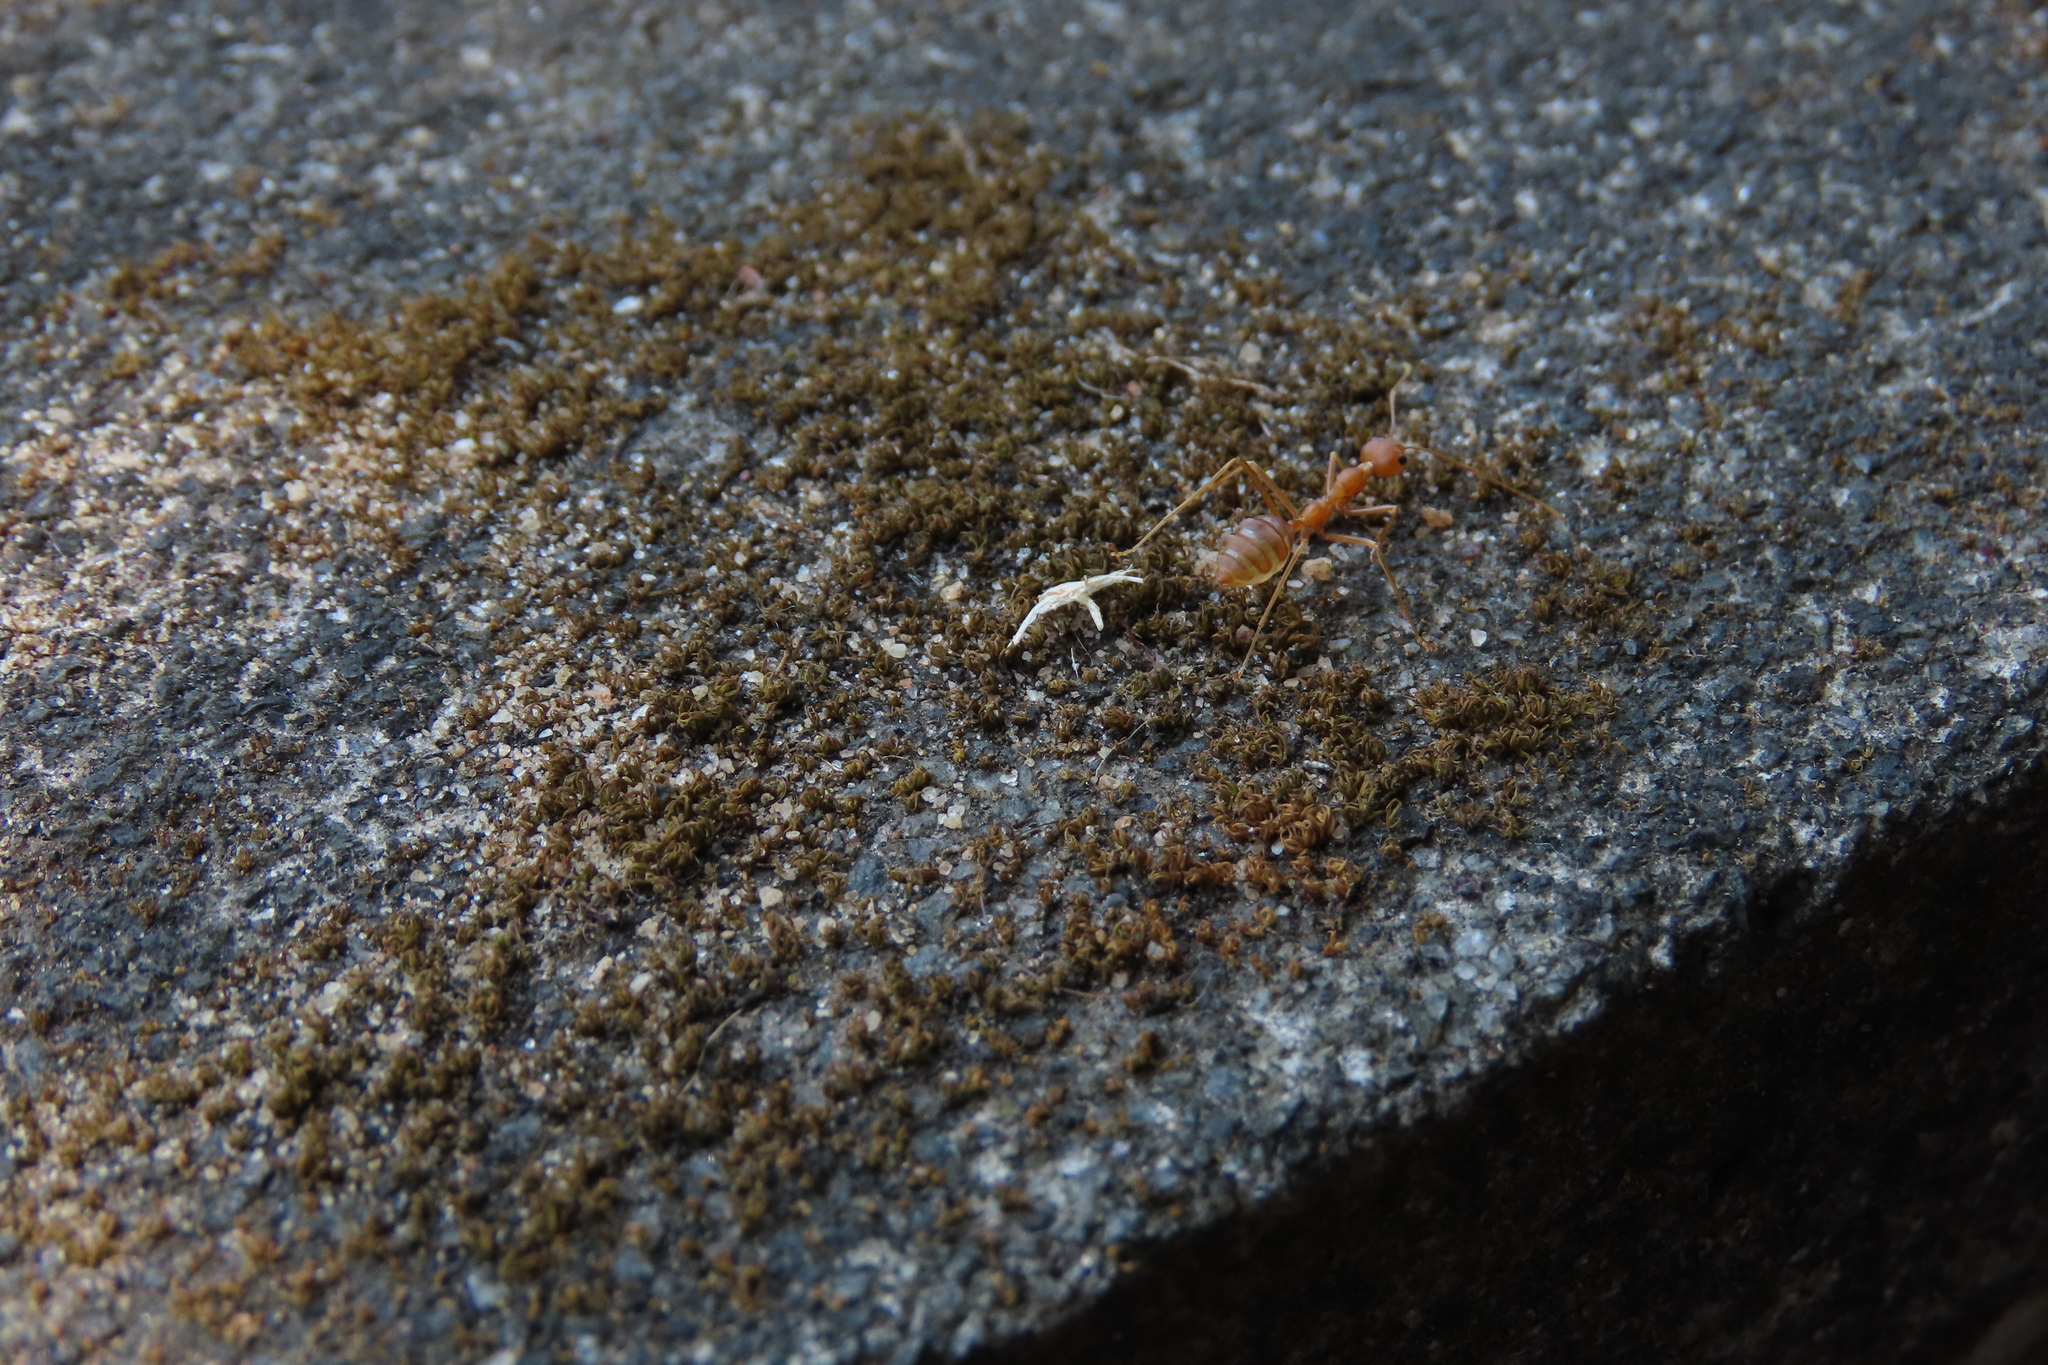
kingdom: Animalia
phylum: Arthropoda
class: Insecta
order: Hymenoptera
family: Formicidae
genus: Oecophylla
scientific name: Oecophylla smaragdina
